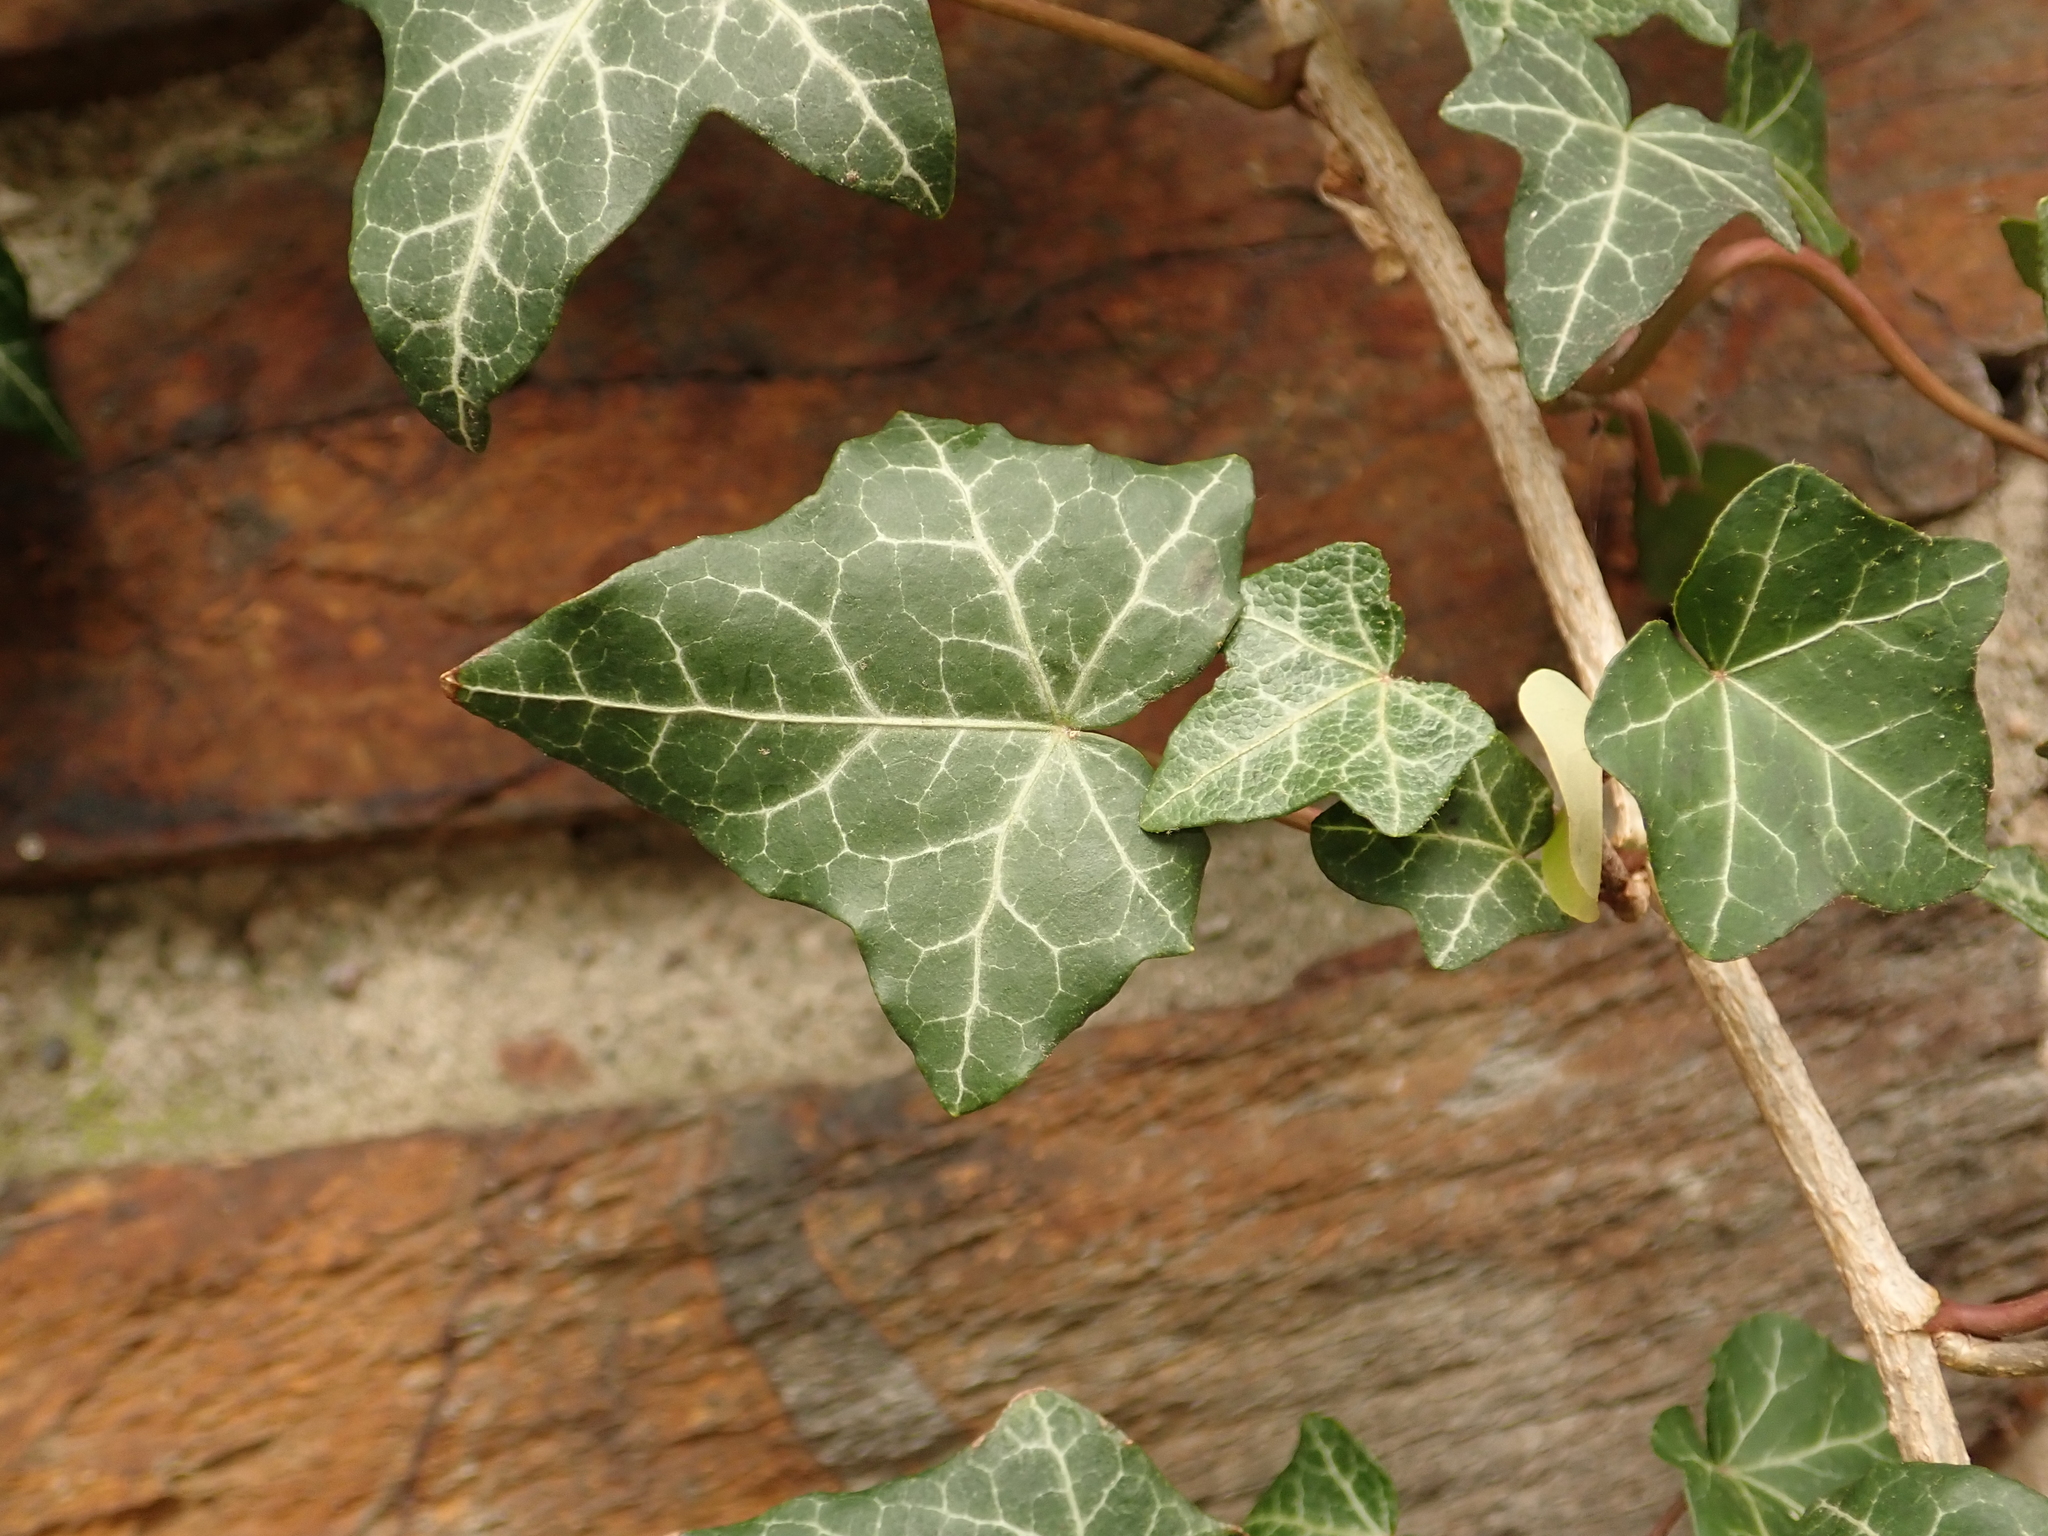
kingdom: Plantae
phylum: Tracheophyta
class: Magnoliopsida
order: Apiales
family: Araliaceae
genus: Hedera
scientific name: Hedera helix
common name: Ivy
